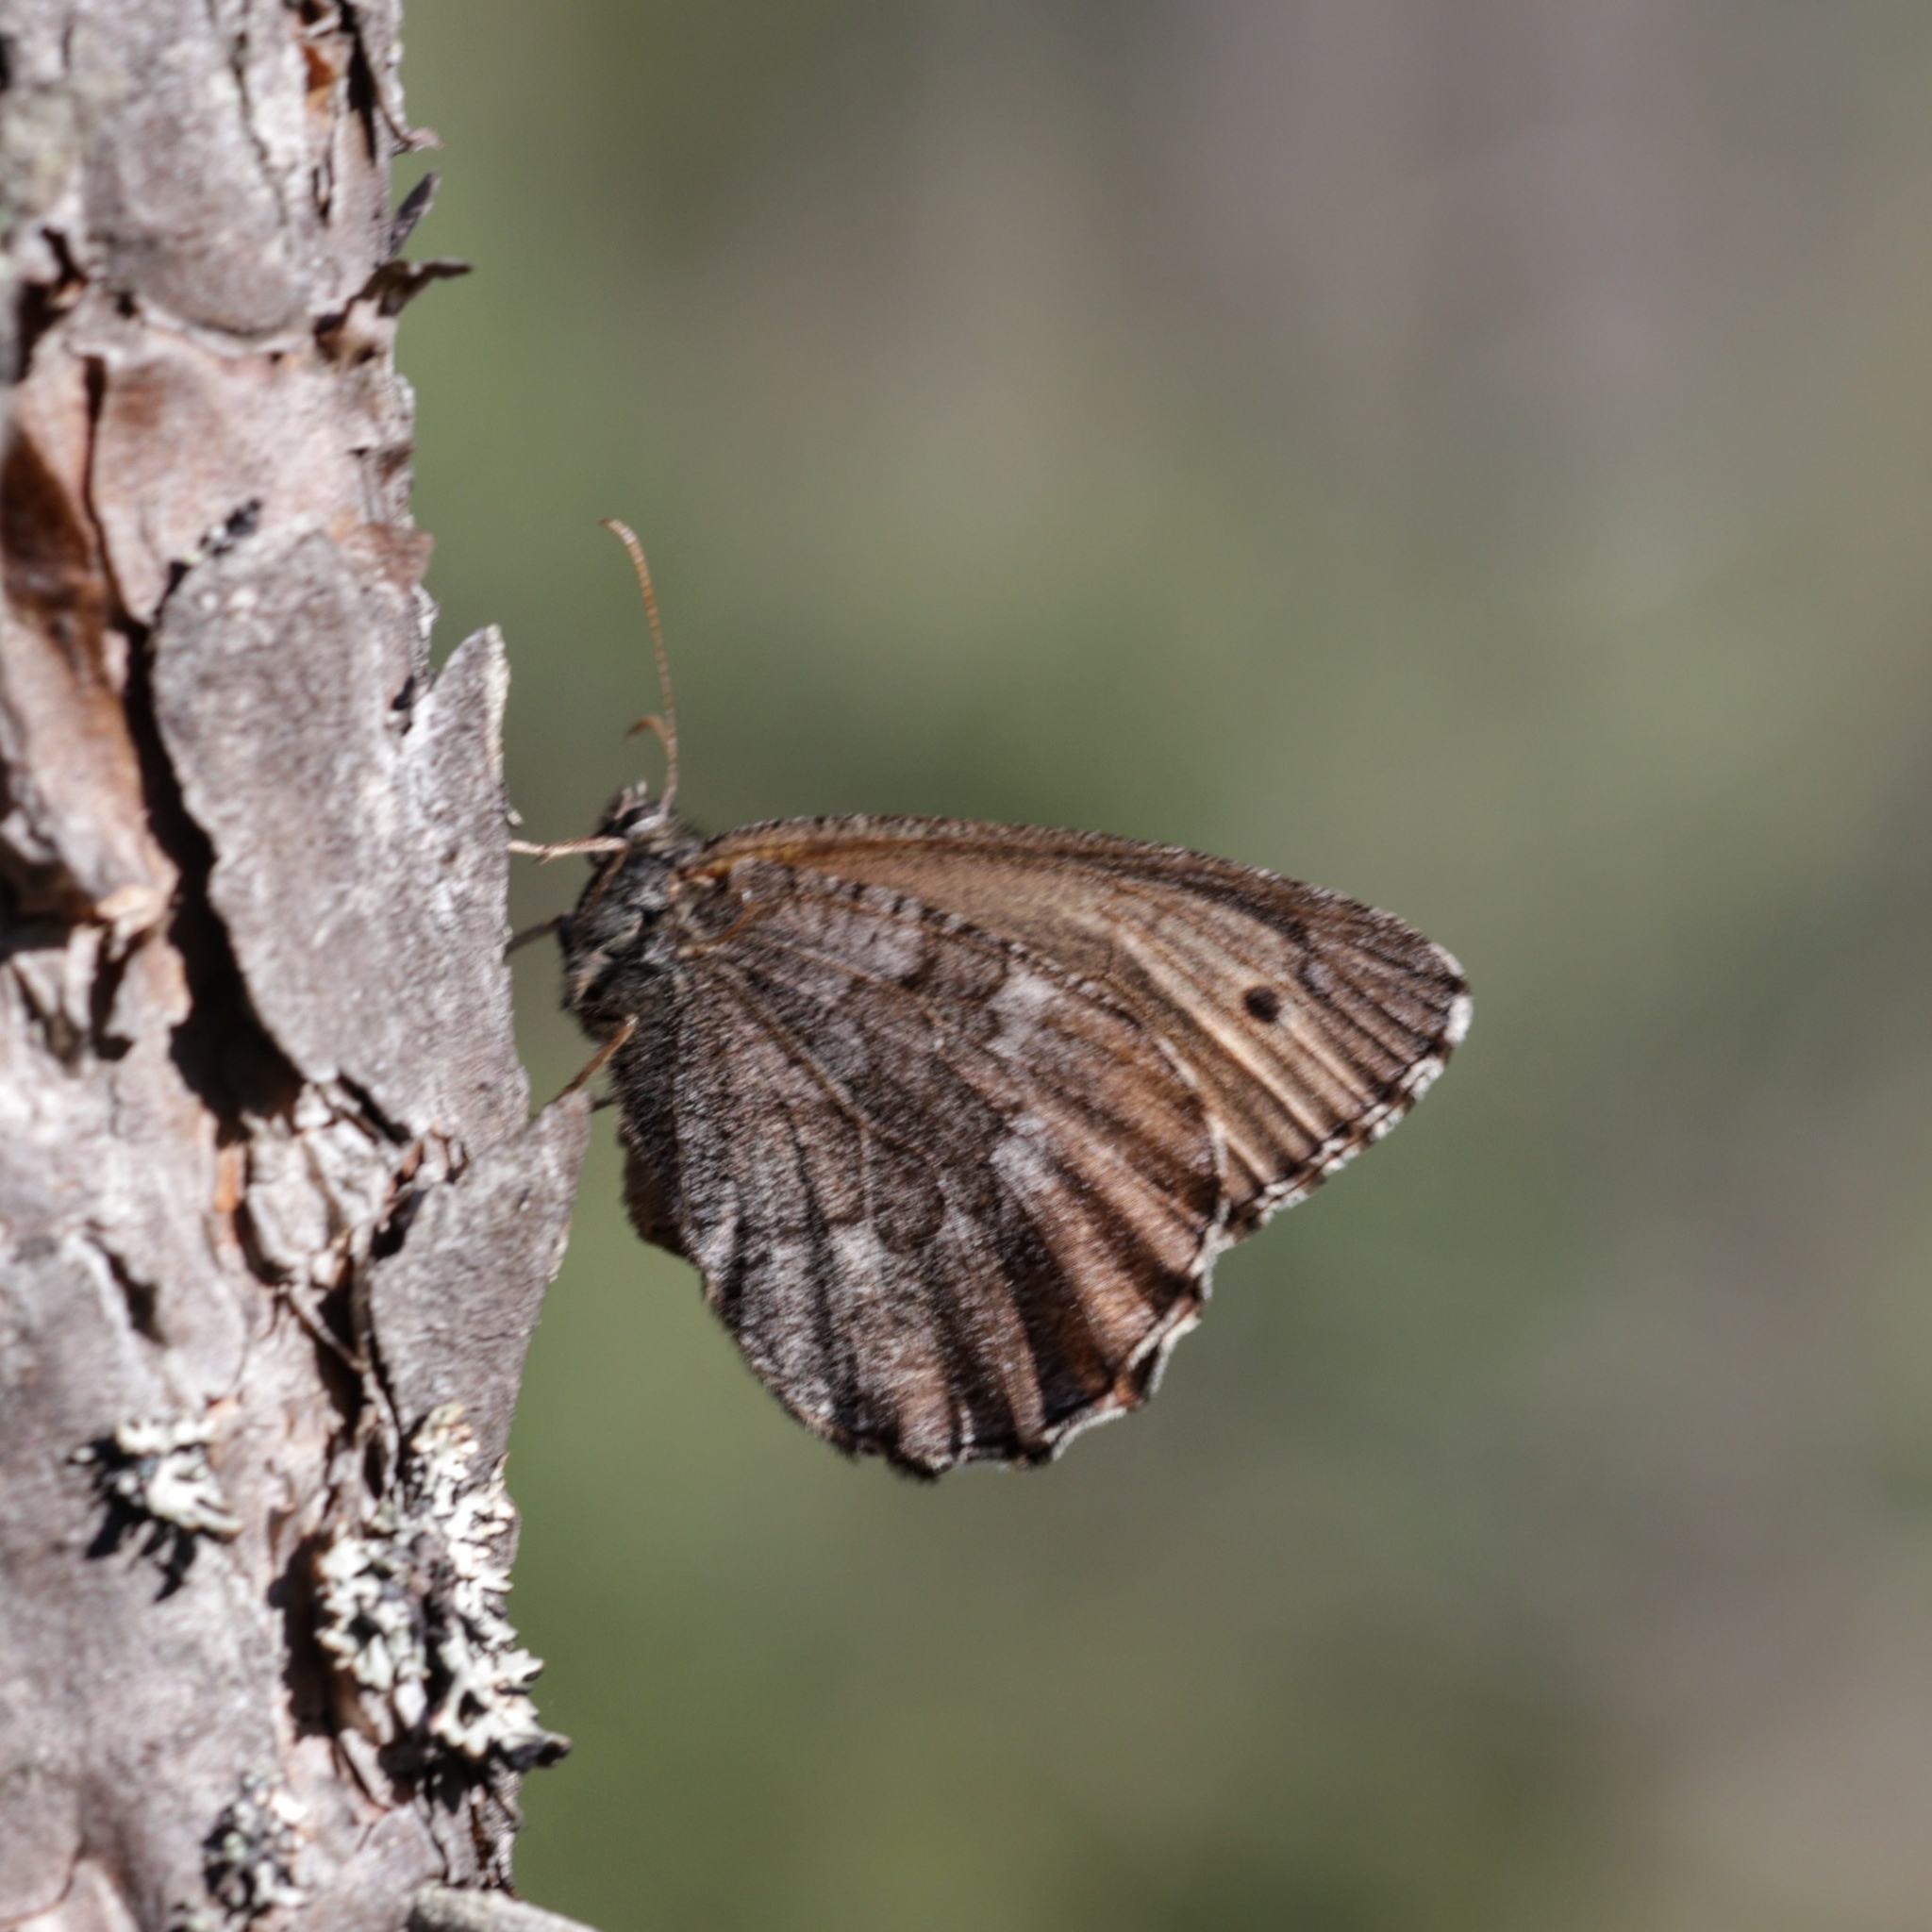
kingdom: Animalia
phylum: Arthropoda
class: Insecta
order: Lepidoptera
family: Nymphalidae
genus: Oeneis
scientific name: Oeneis jutta
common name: Baltic grayling
